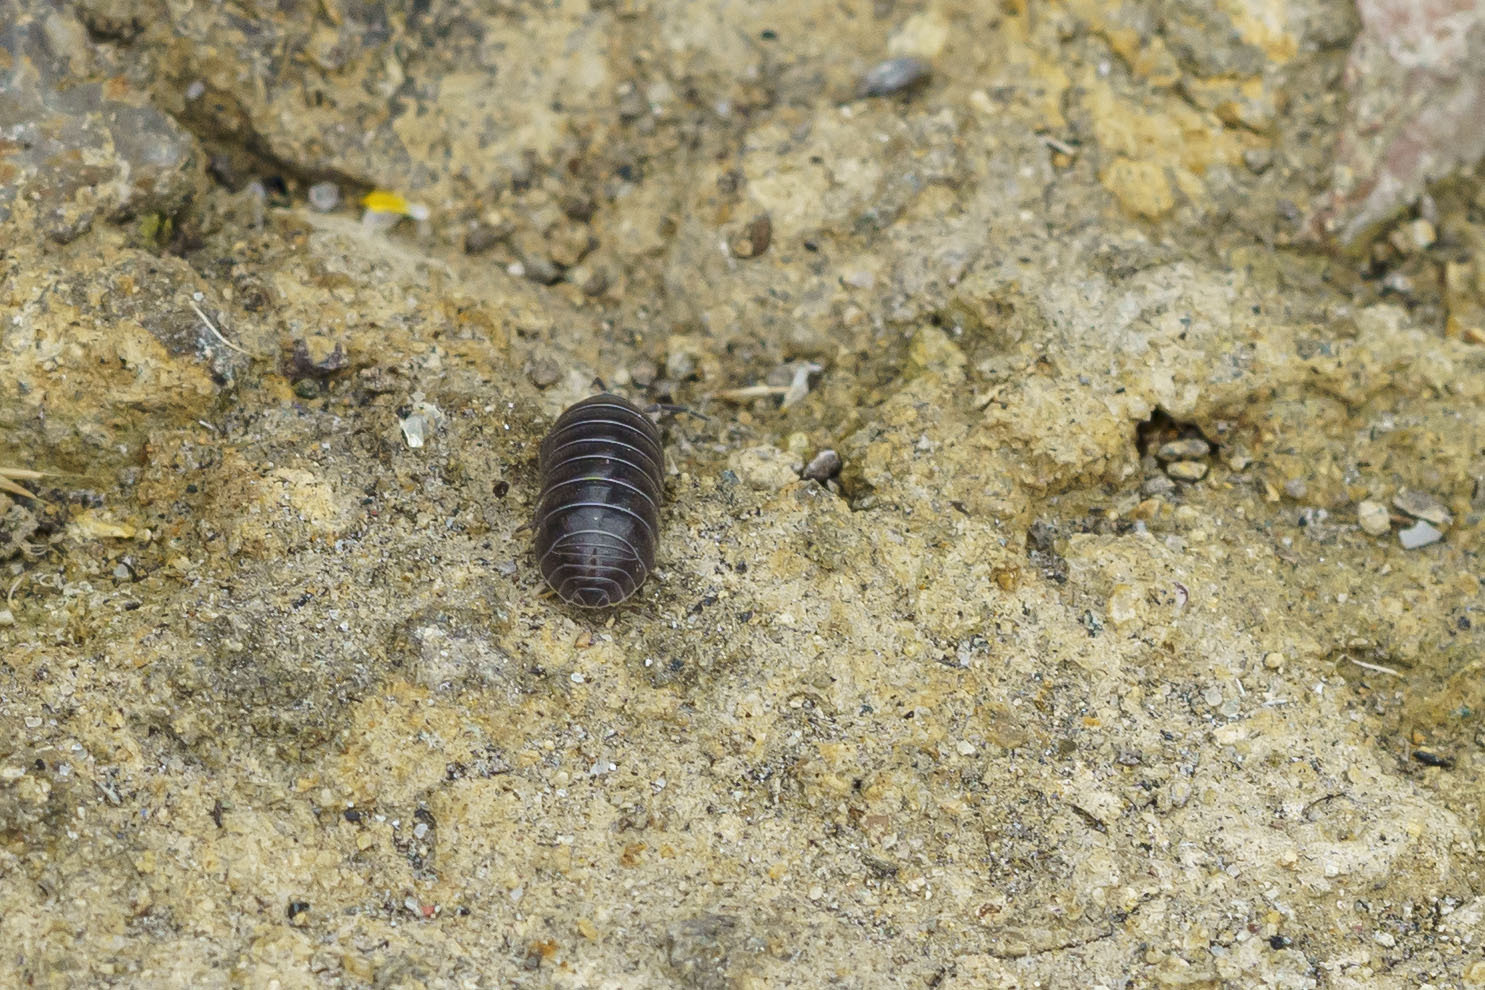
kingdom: Animalia
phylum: Arthropoda
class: Malacostraca
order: Isopoda
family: Armadillidiidae
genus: Armadillidium
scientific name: Armadillidium vulgare
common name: Common pill woodlouse
